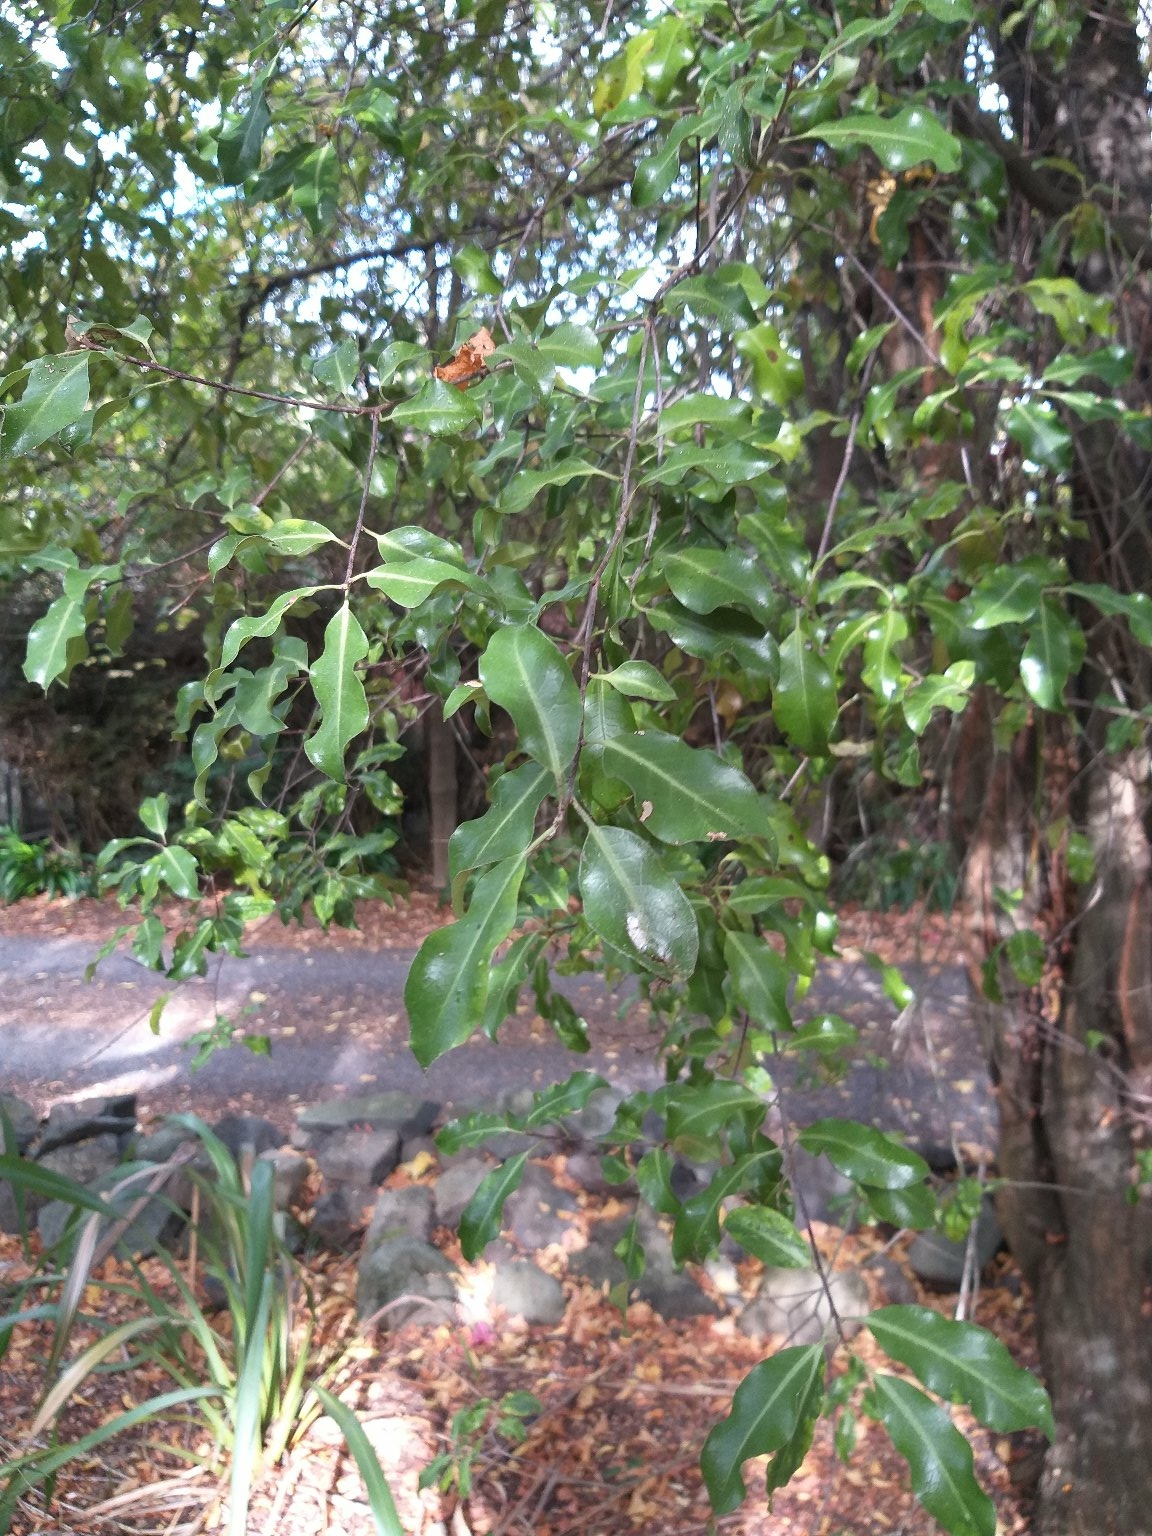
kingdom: Plantae
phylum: Tracheophyta
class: Magnoliopsida
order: Apiales
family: Pittosporaceae
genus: Pittosporum
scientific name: Pittosporum tenuifolium
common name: Kohuhu
